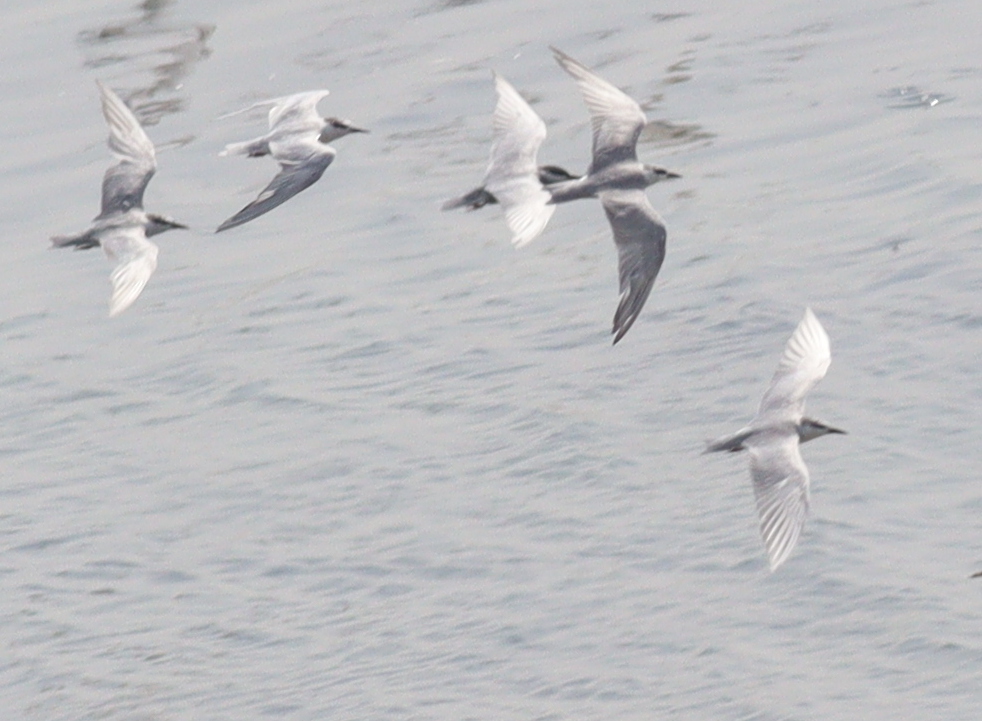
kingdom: Animalia
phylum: Chordata
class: Aves
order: Charadriiformes
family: Laridae
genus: Chlidonias
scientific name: Chlidonias hybrida
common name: Whiskered tern
